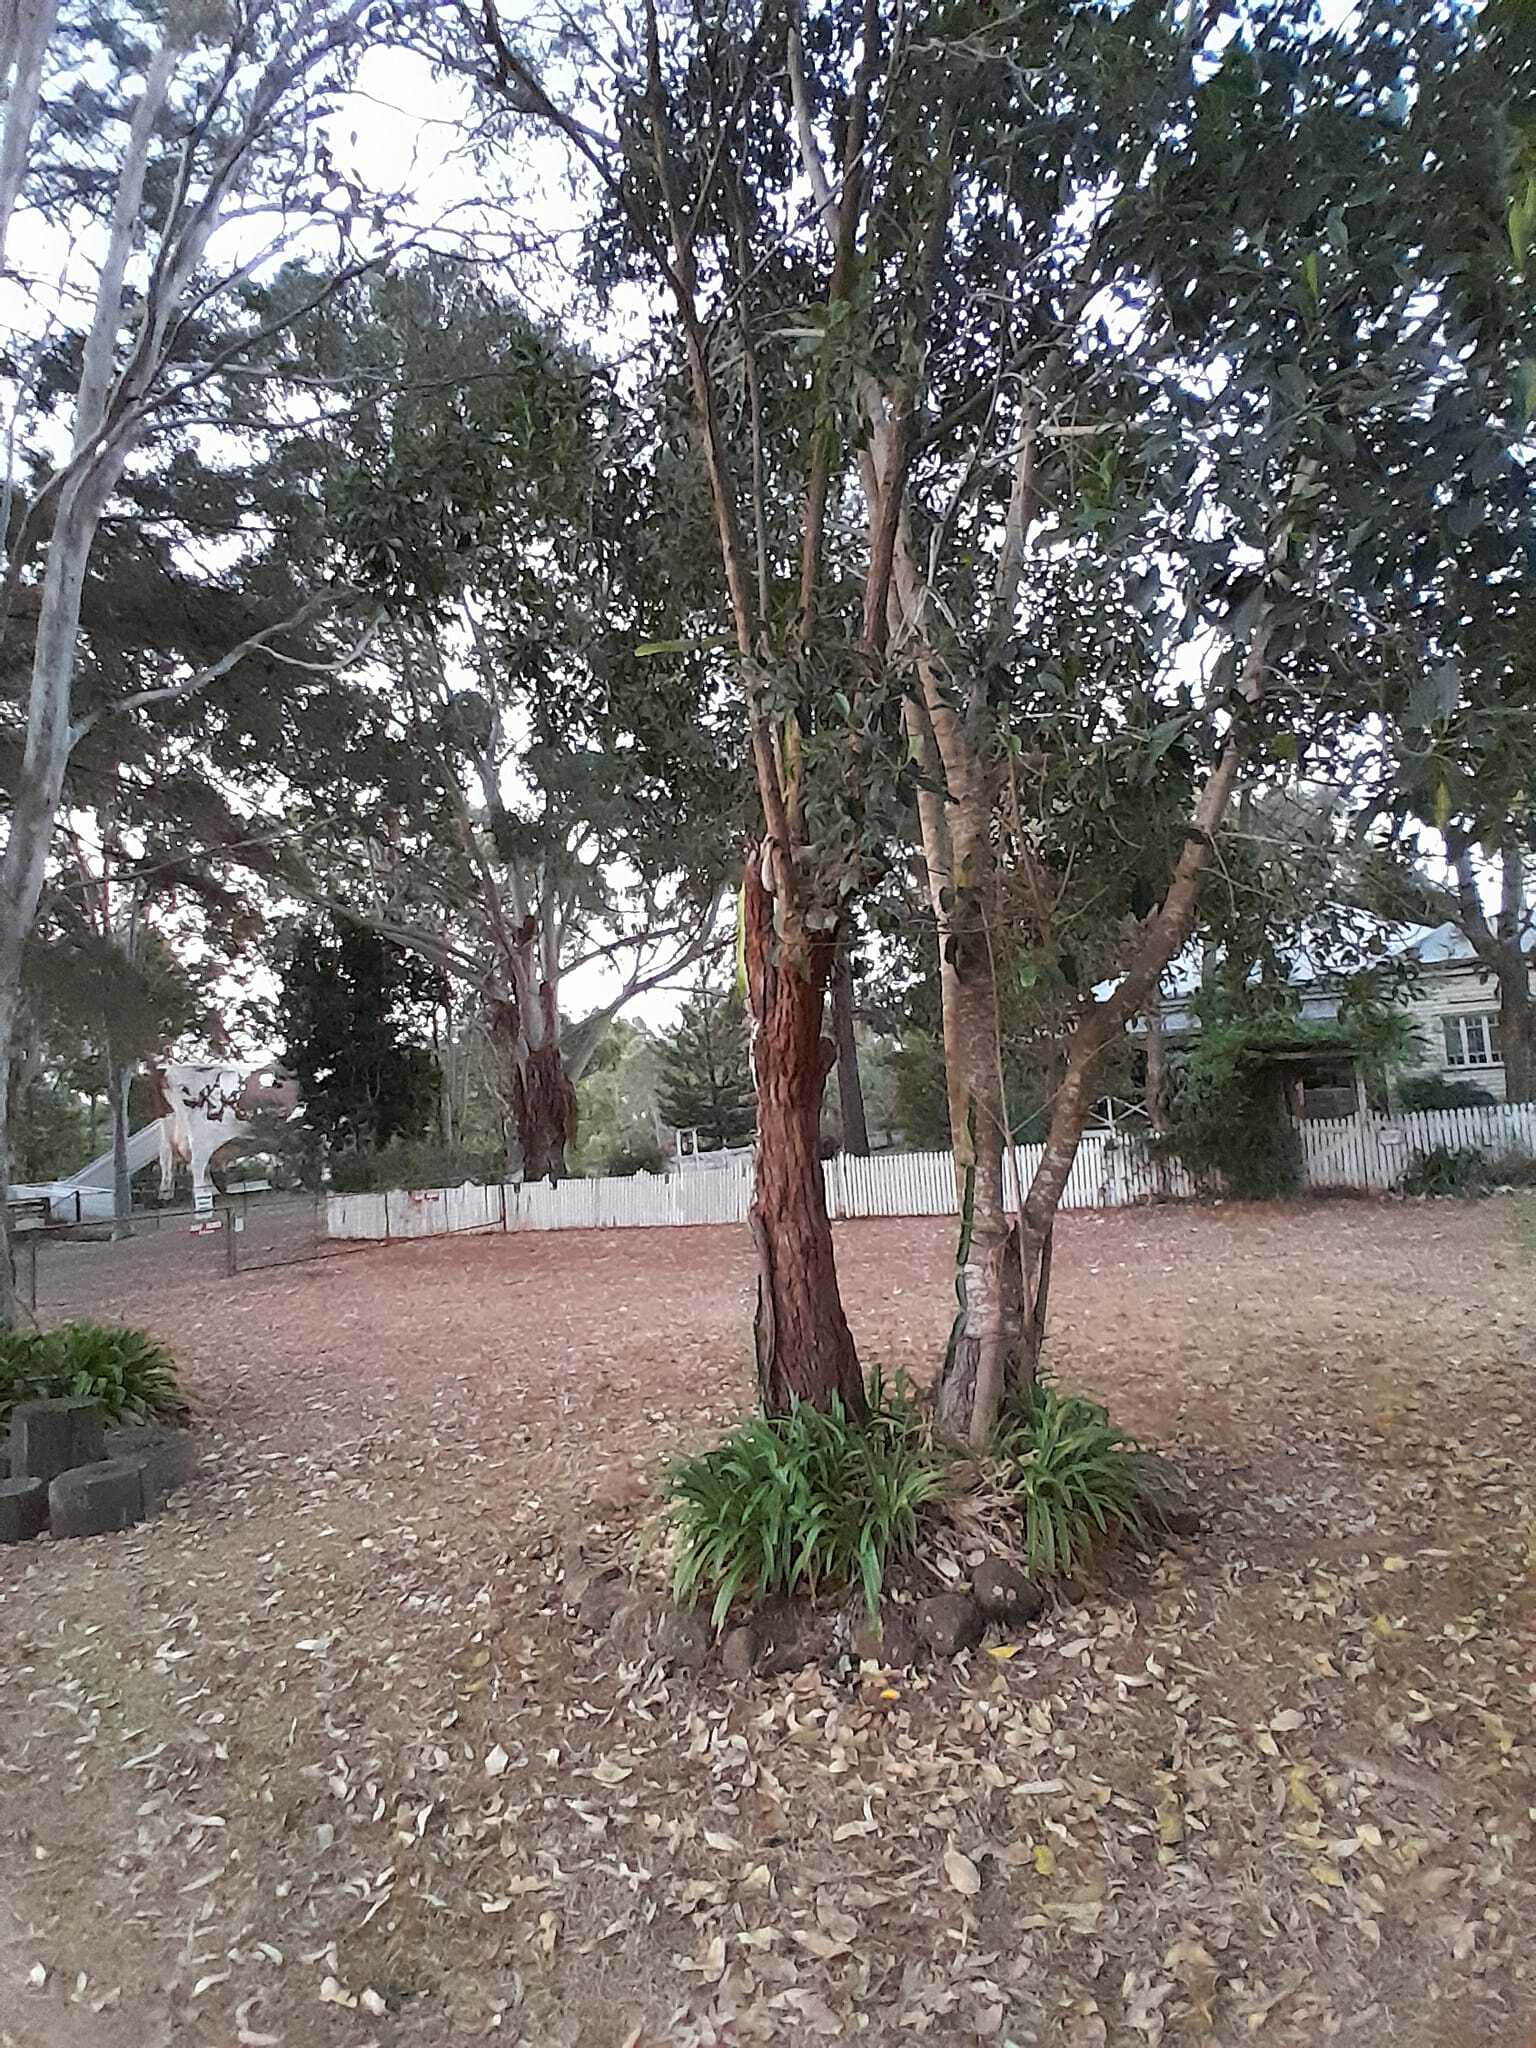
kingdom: Animalia
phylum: Chordata
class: Mammalia
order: Diprotodontia
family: Phascolarctidae
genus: Phascolarctos
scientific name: Phascolarctos cinereus
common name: Koala
